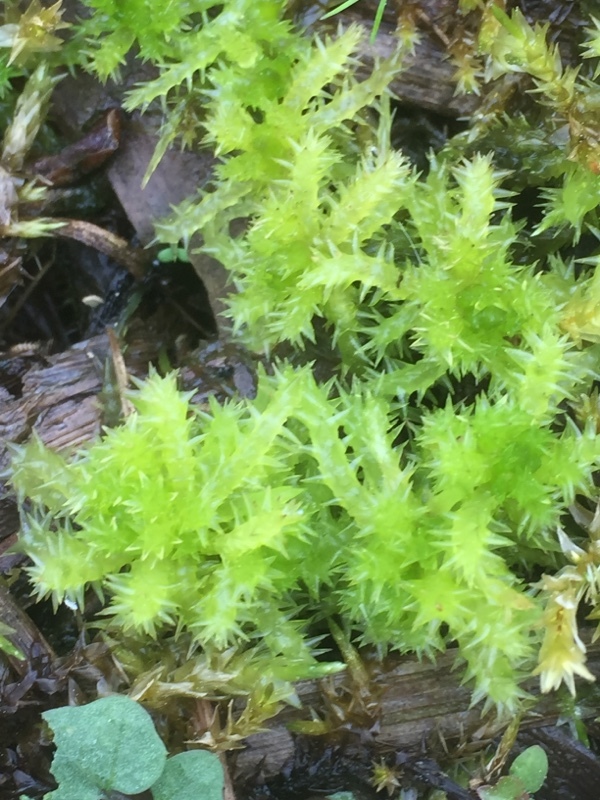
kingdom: Plantae
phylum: Bryophyta
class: Sphagnopsida
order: Sphagnales
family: Sphagnaceae
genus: Sphagnum
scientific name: Sphagnum squarrosum
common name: Shaggy peat moss
